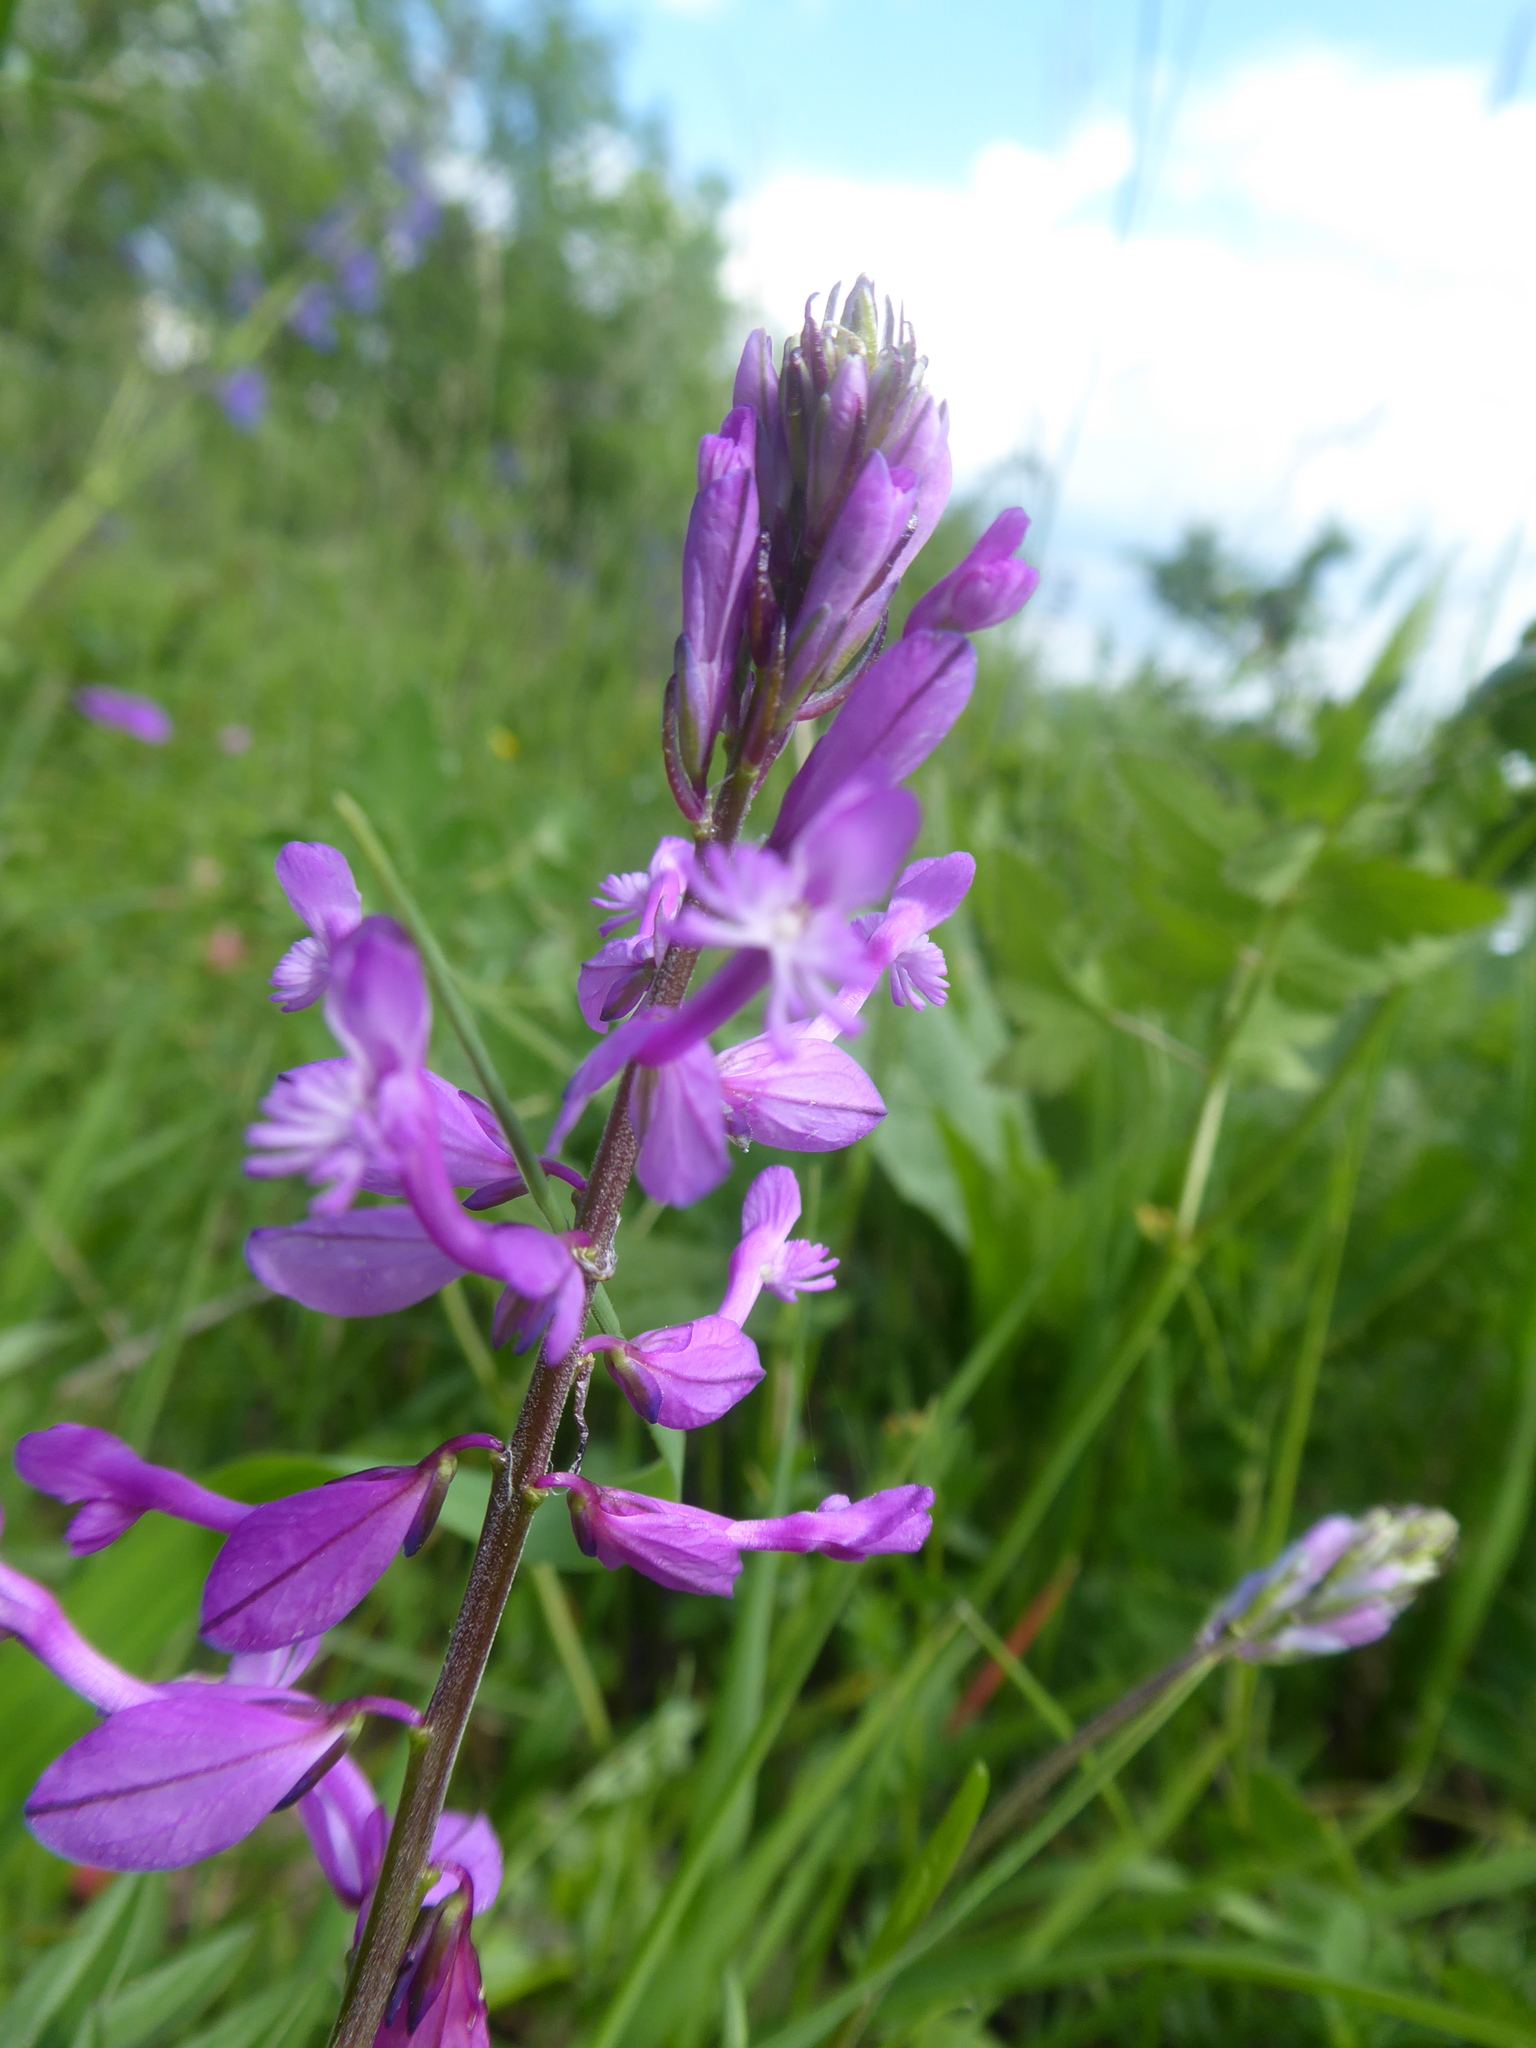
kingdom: Plantae
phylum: Tracheophyta
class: Magnoliopsida
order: Fabales
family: Polygalaceae
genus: Polygala
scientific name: Polygala major
